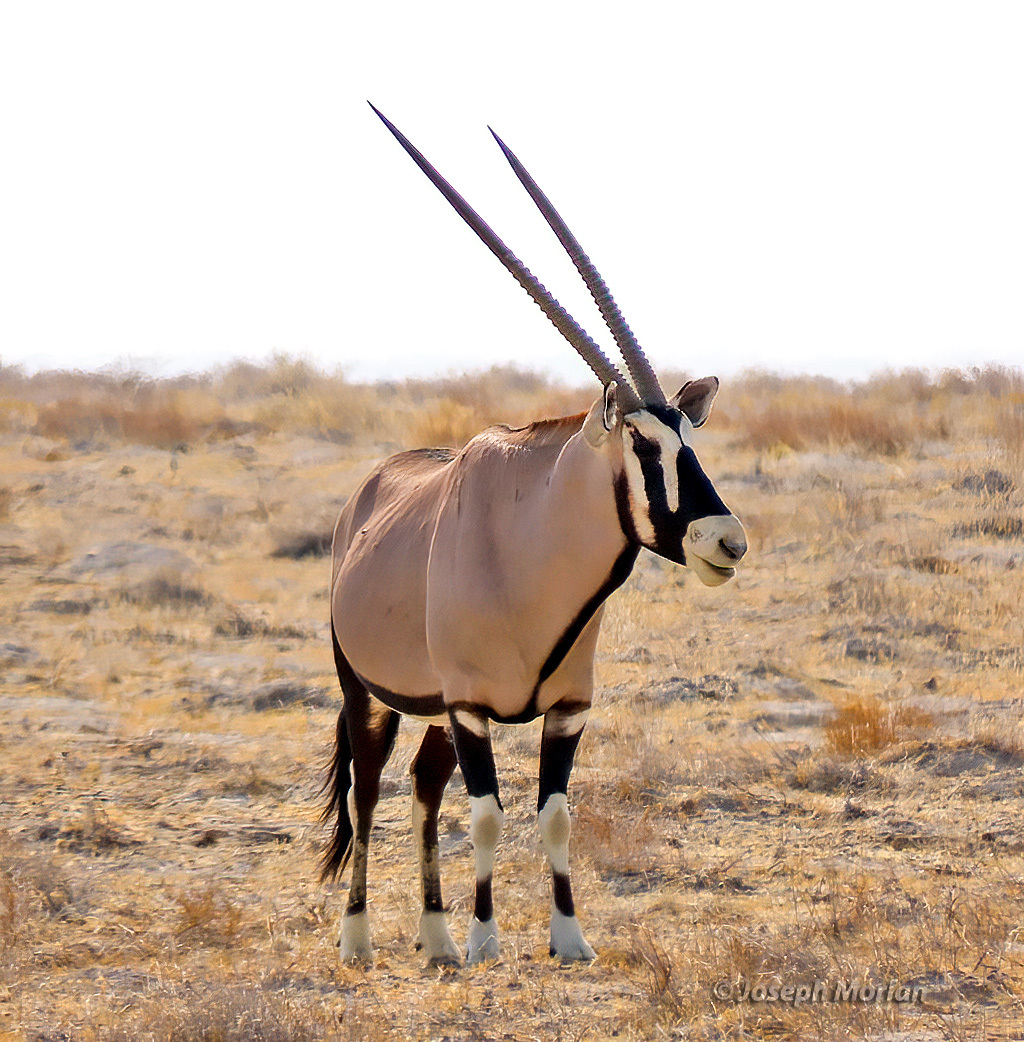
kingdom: Animalia
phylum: Chordata
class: Mammalia
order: Artiodactyla
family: Bovidae
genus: Oryx
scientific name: Oryx gazella
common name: Gemsbok
